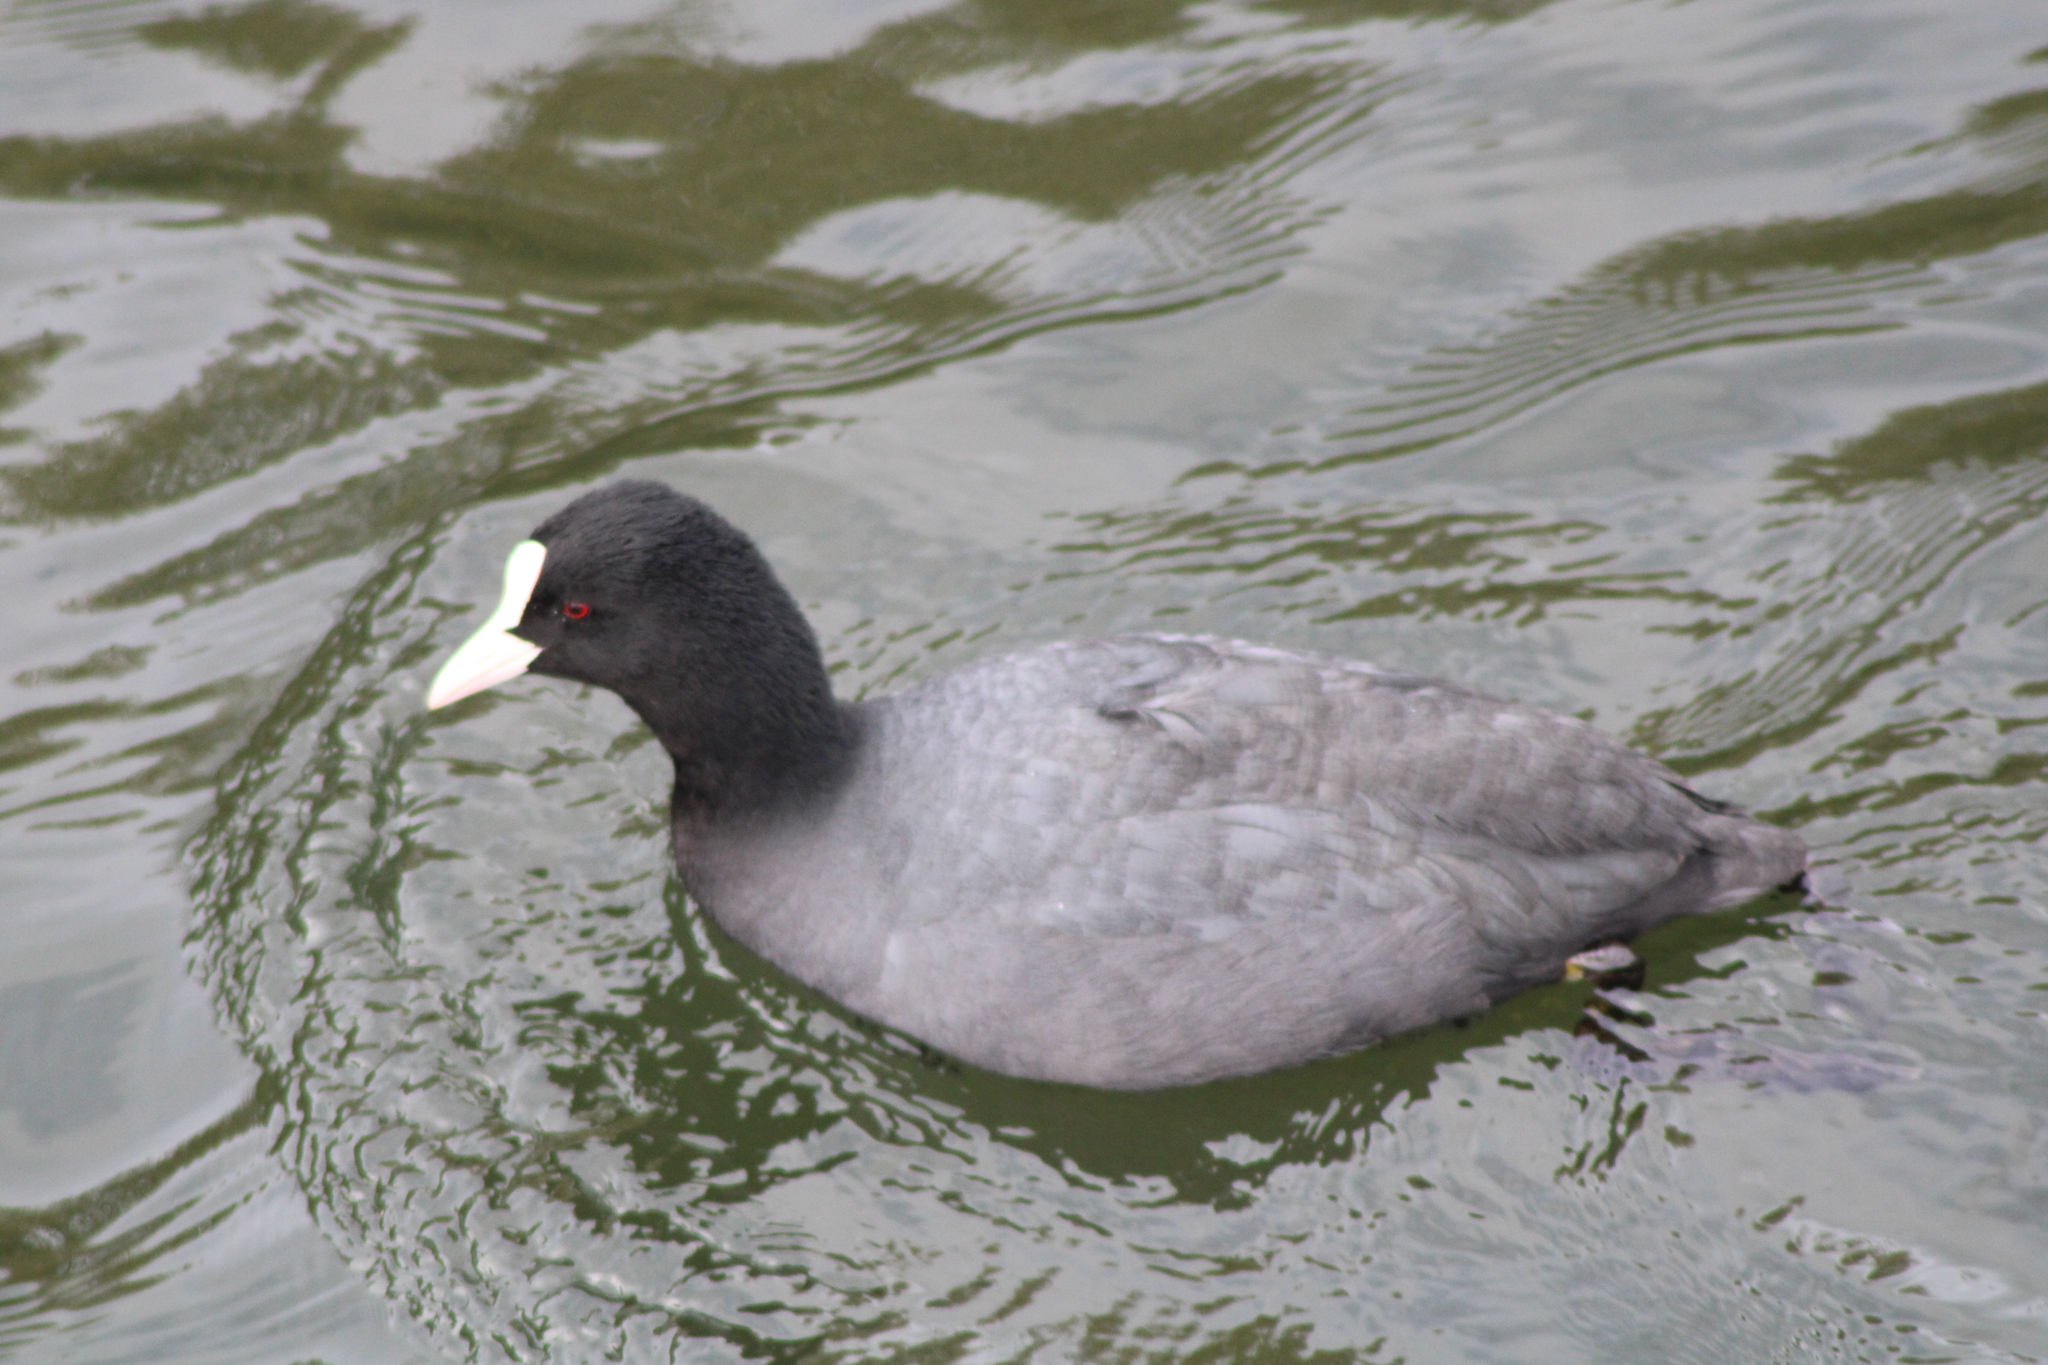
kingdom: Animalia
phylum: Chordata
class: Aves
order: Gruiformes
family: Rallidae
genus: Fulica
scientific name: Fulica atra
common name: Eurasian coot
